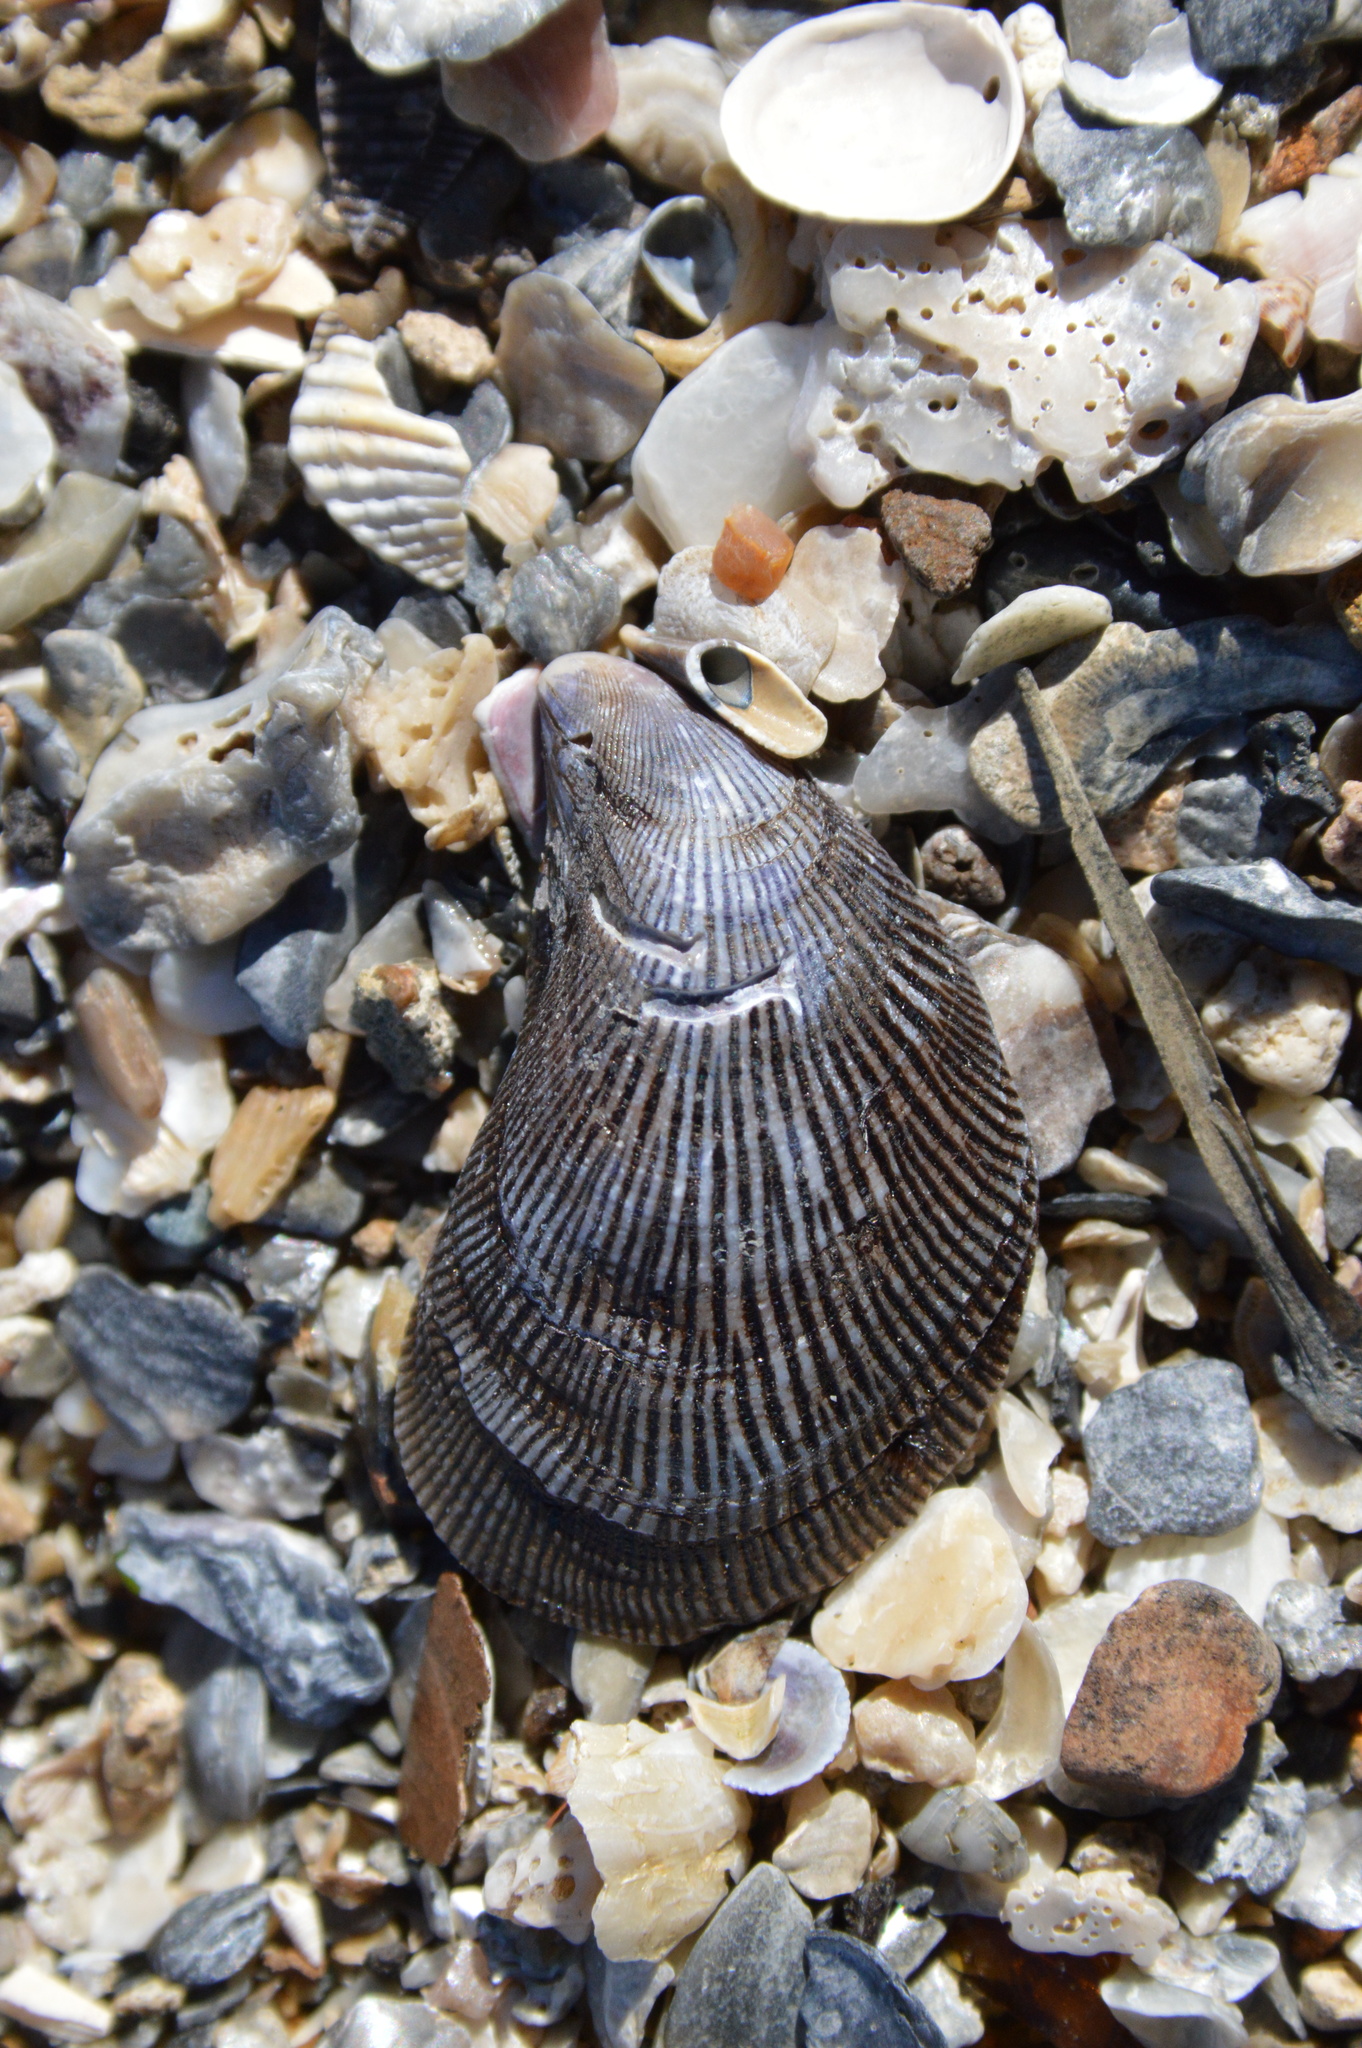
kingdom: Animalia
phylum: Mollusca
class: Bivalvia
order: Mytilida
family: Mytilidae
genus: Ischadium
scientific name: Ischadium recurvum
